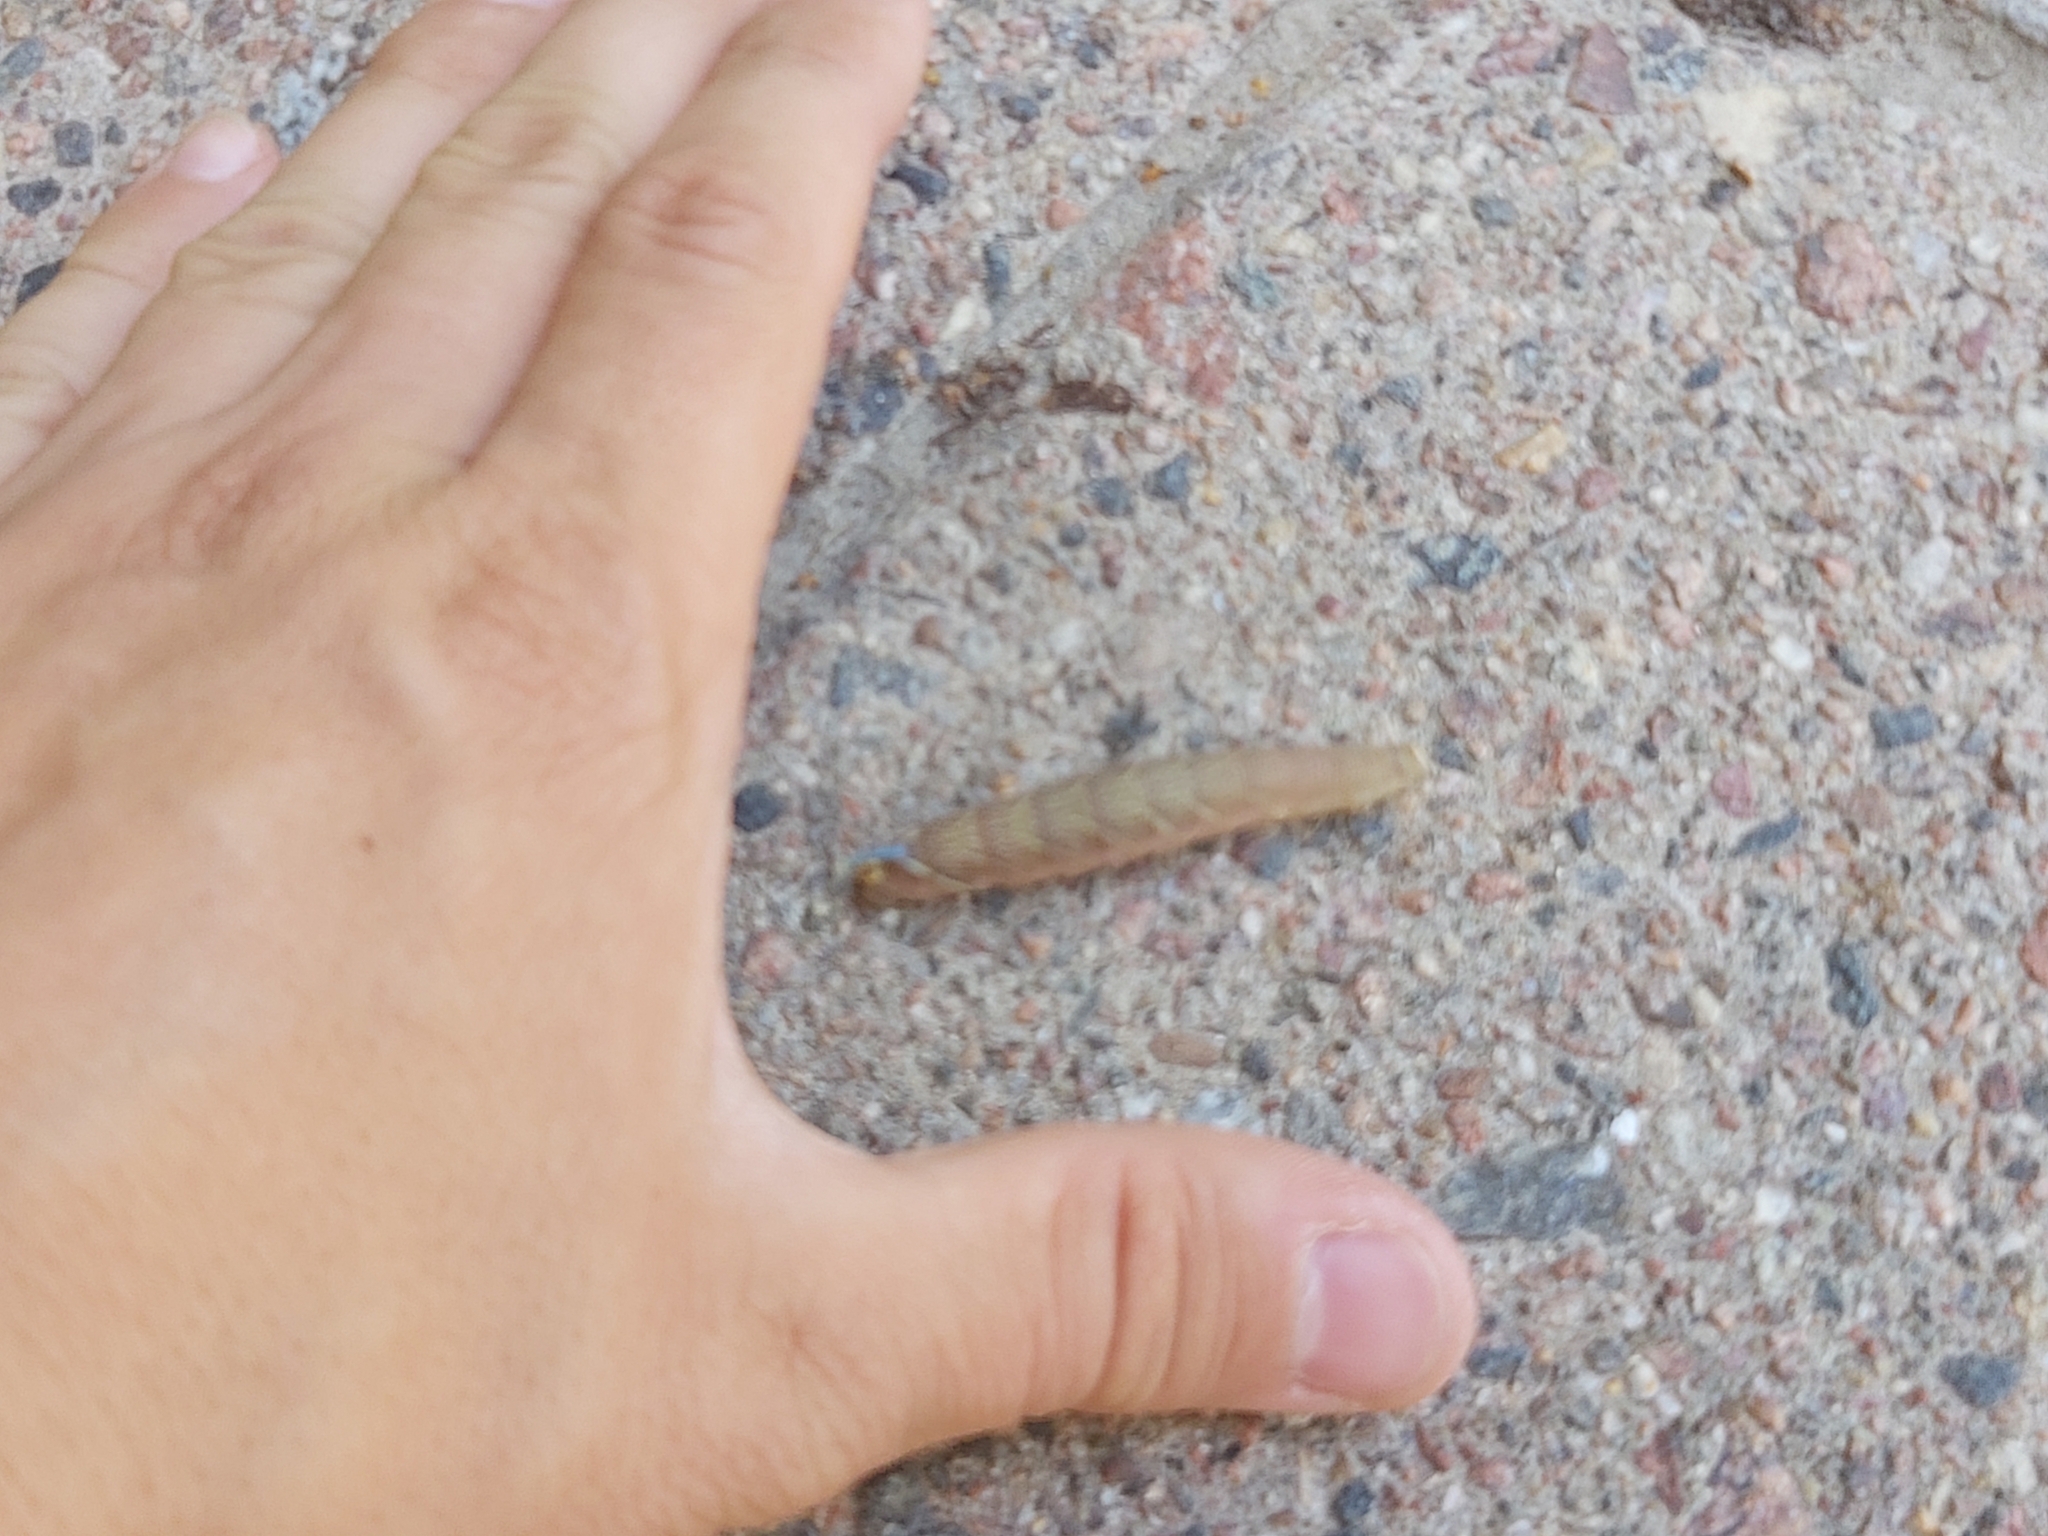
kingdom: Animalia
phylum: Arthropoda
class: Insecta
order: Lepidoptera
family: Sphingidae
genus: Mimas
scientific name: Mimas tiliae
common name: Lime hawk-moth
